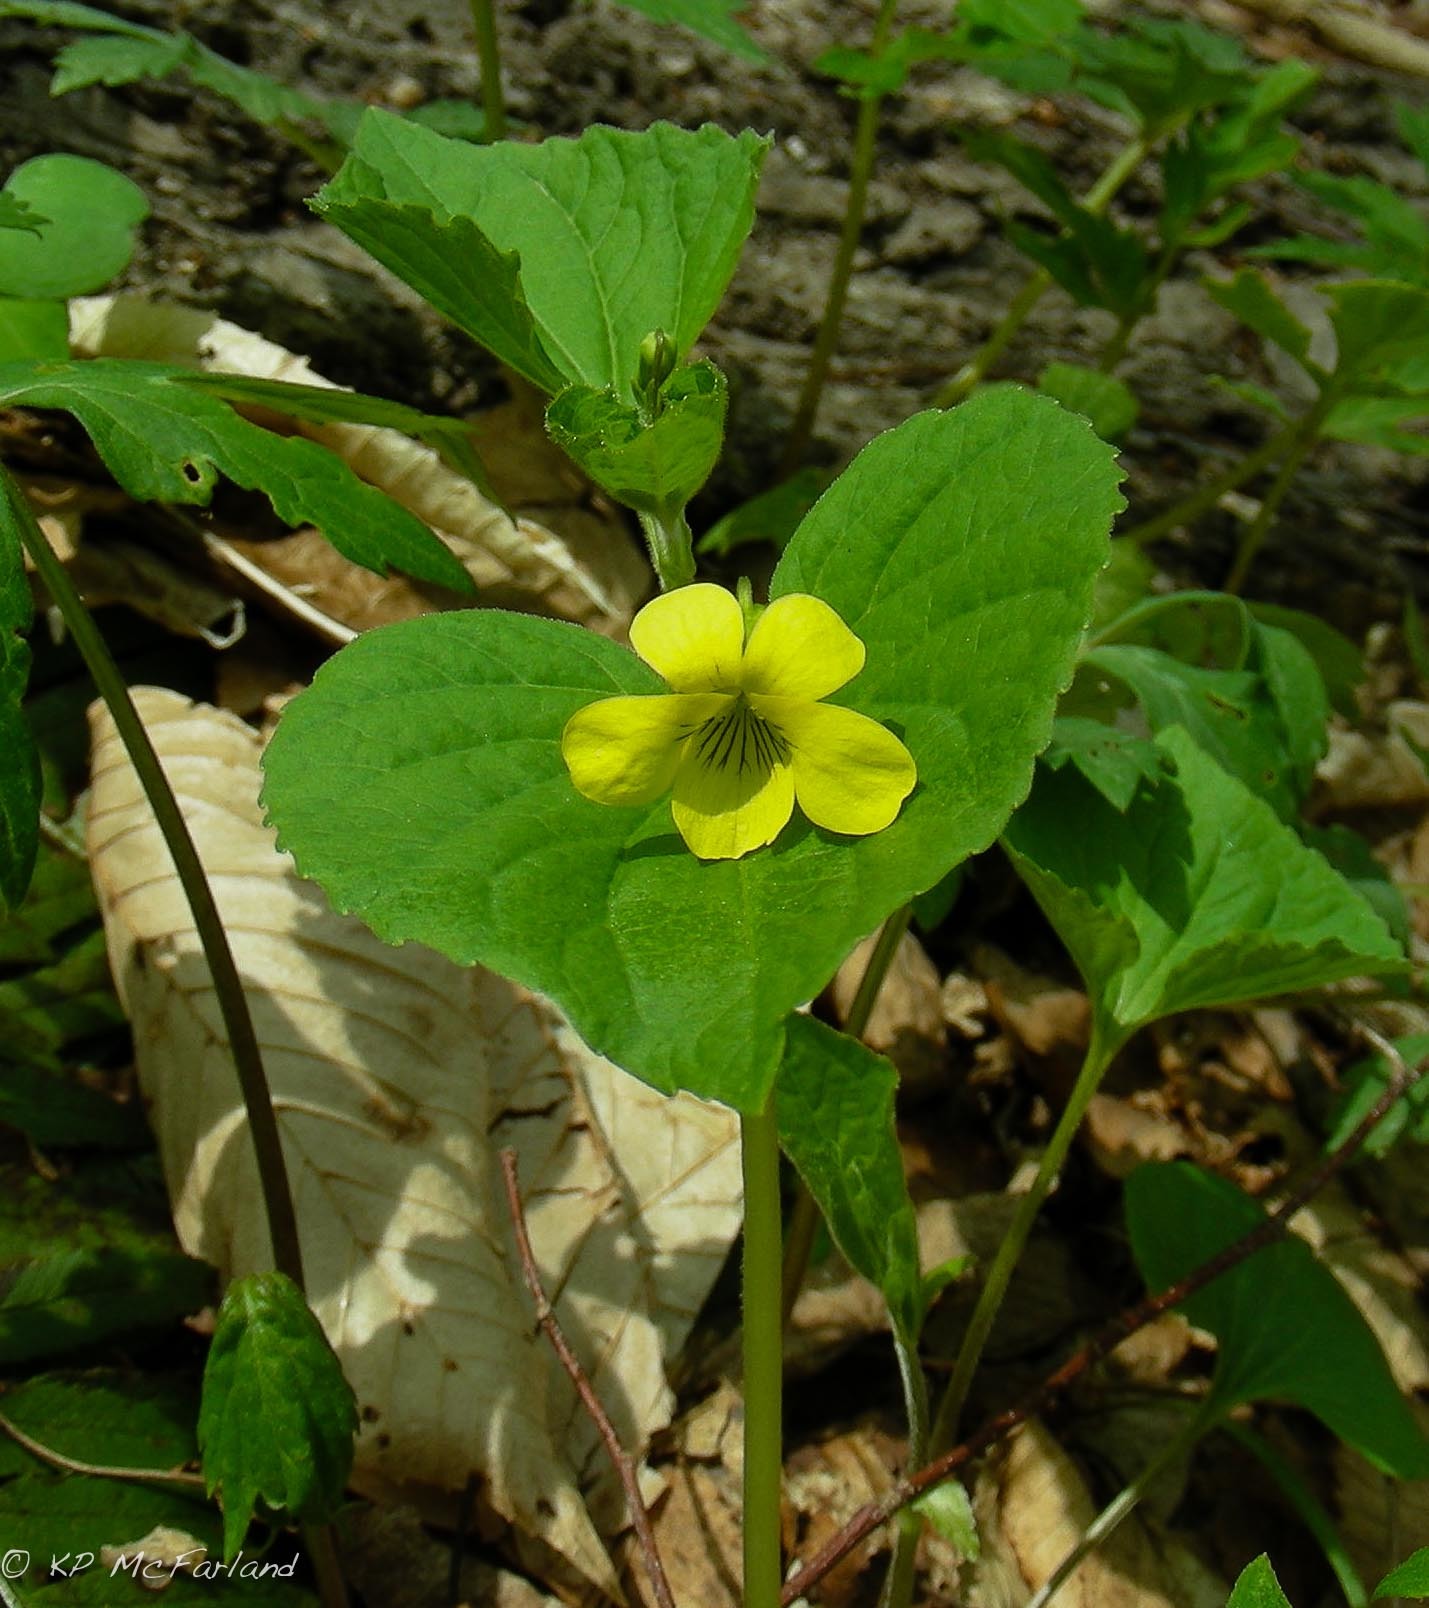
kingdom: Plantae
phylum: Tracheophyta
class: Magnoliopsida
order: Malpighiales
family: Violaceae
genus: Viola
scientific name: Viola pubescens
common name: Yellow forest violet
